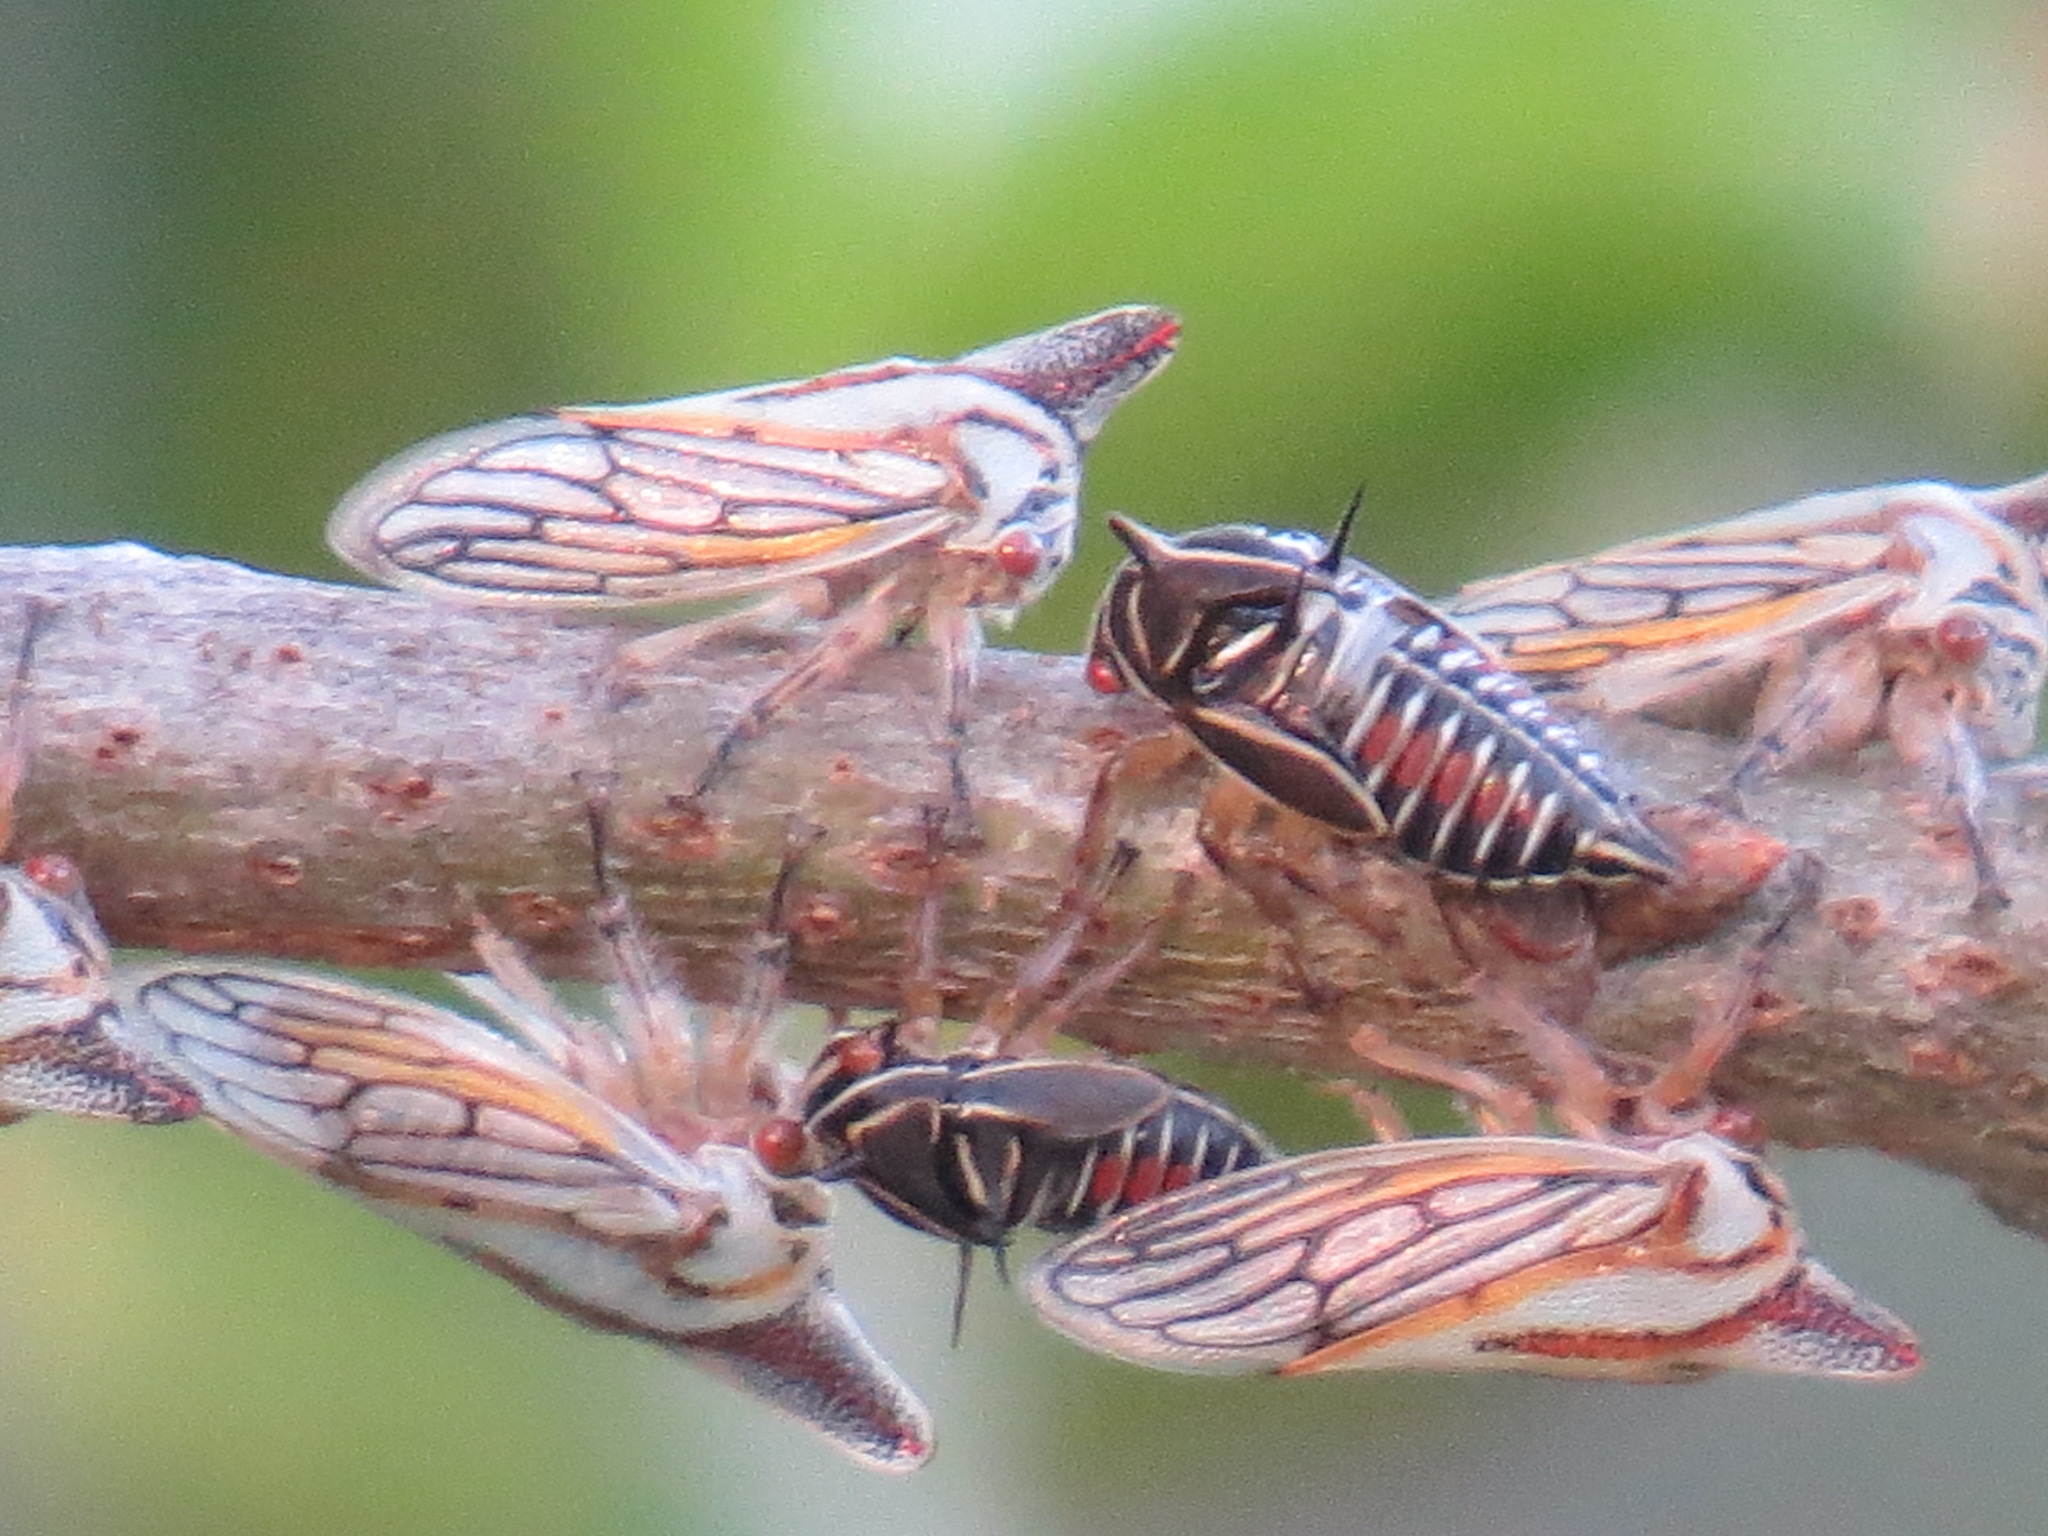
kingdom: Animalia
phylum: Arthropoda
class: Insecta
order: Hemiptera
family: Membracidae
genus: Platycotis
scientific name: Platycotis vittatus
